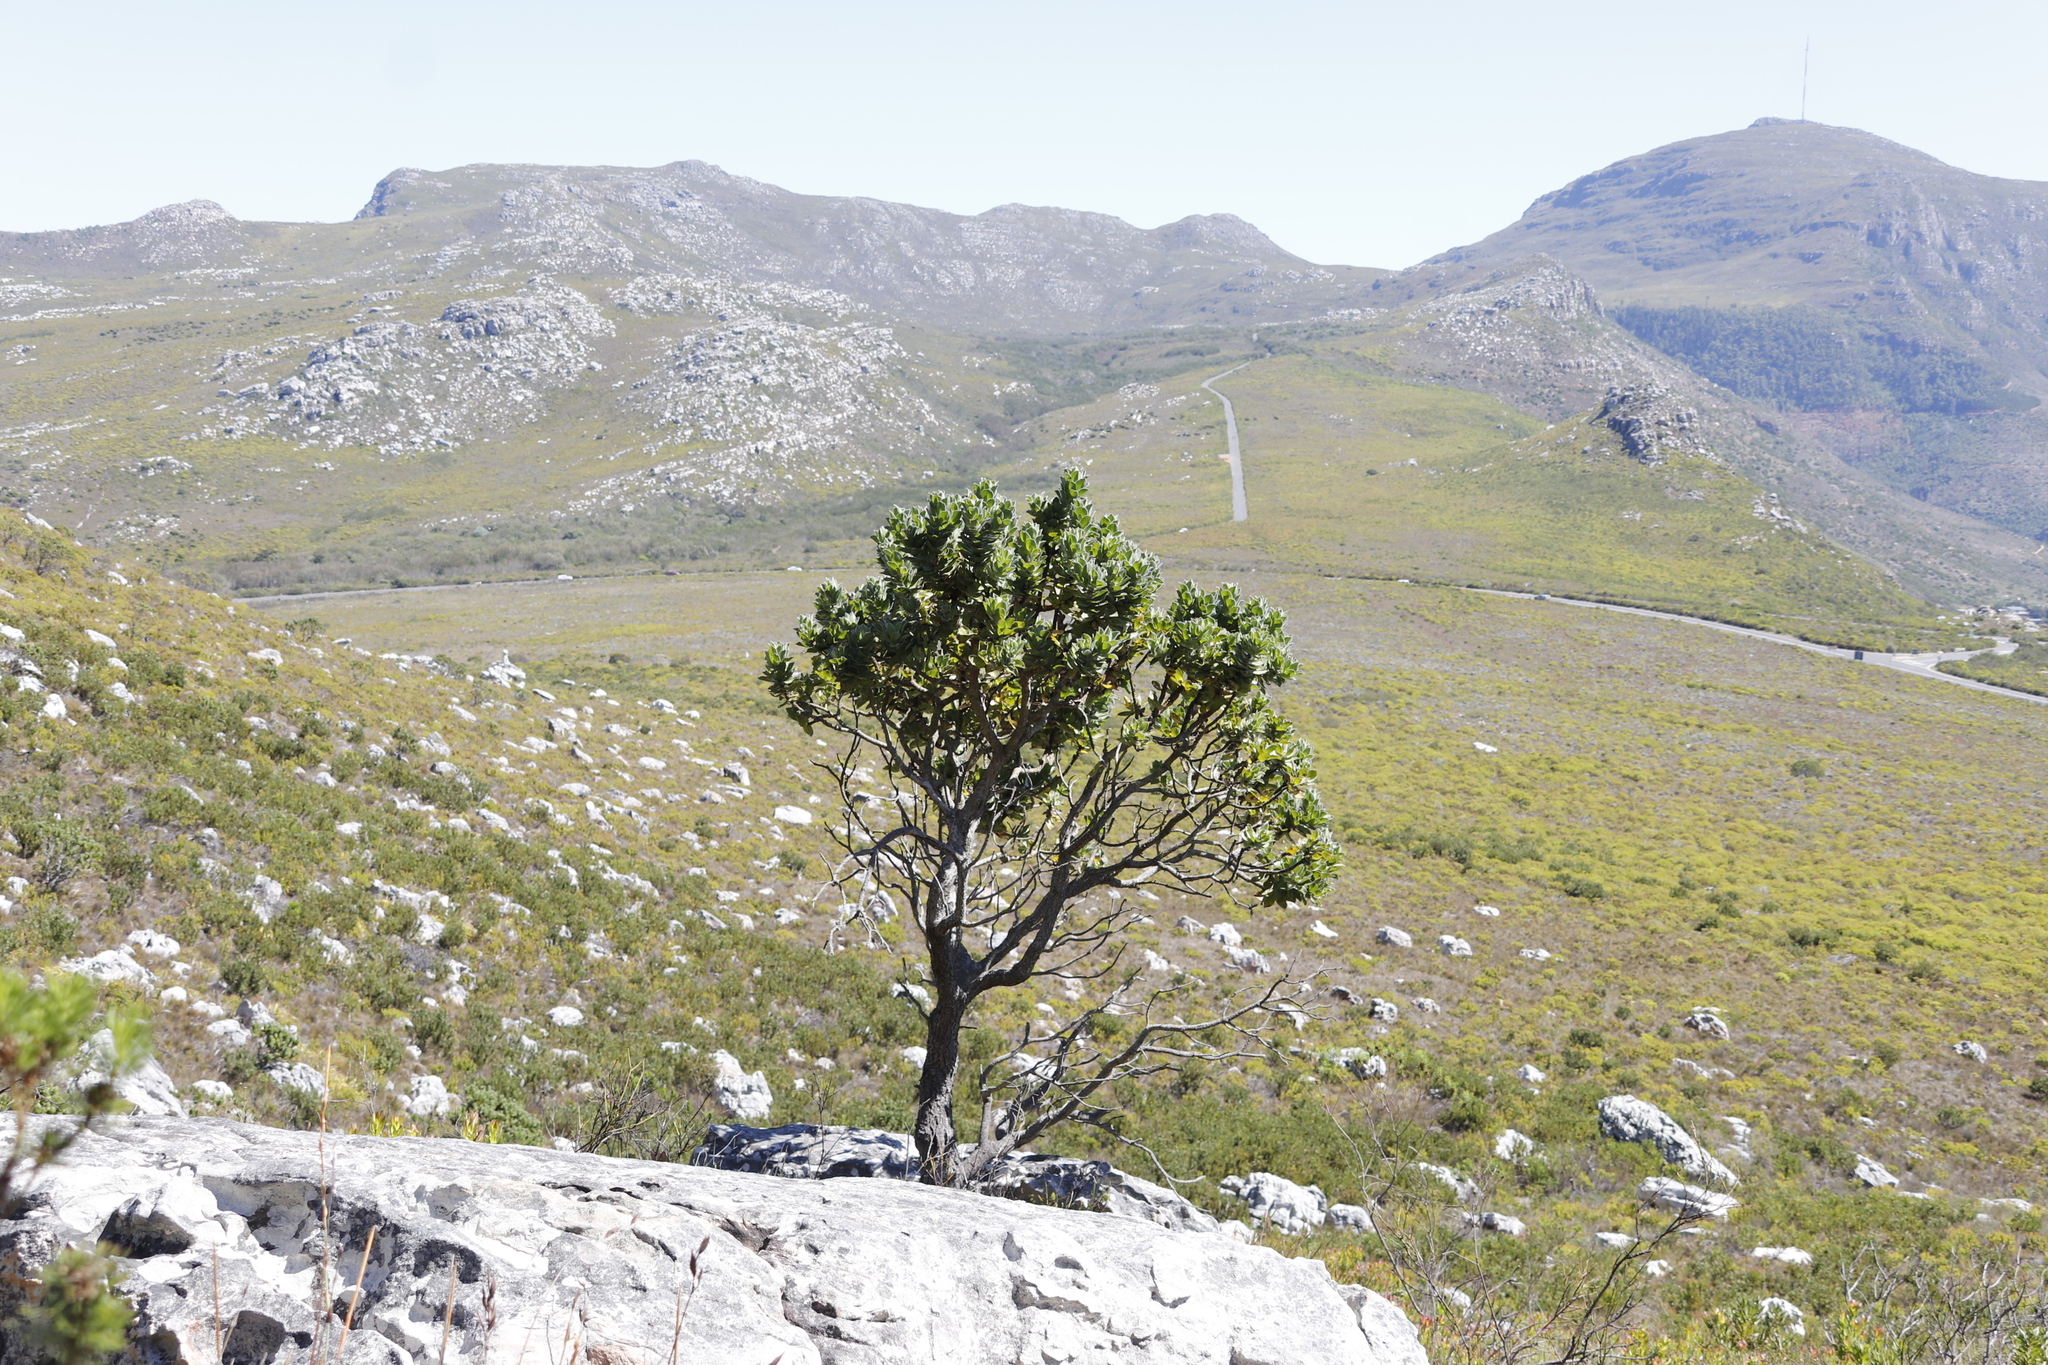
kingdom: Plantae
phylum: Tracheophyta
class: Magnoliopsida
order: Proteales
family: Proteaceae
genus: Leucospermum
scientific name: Leucospermum conocarpodendron
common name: Tree pincushion
